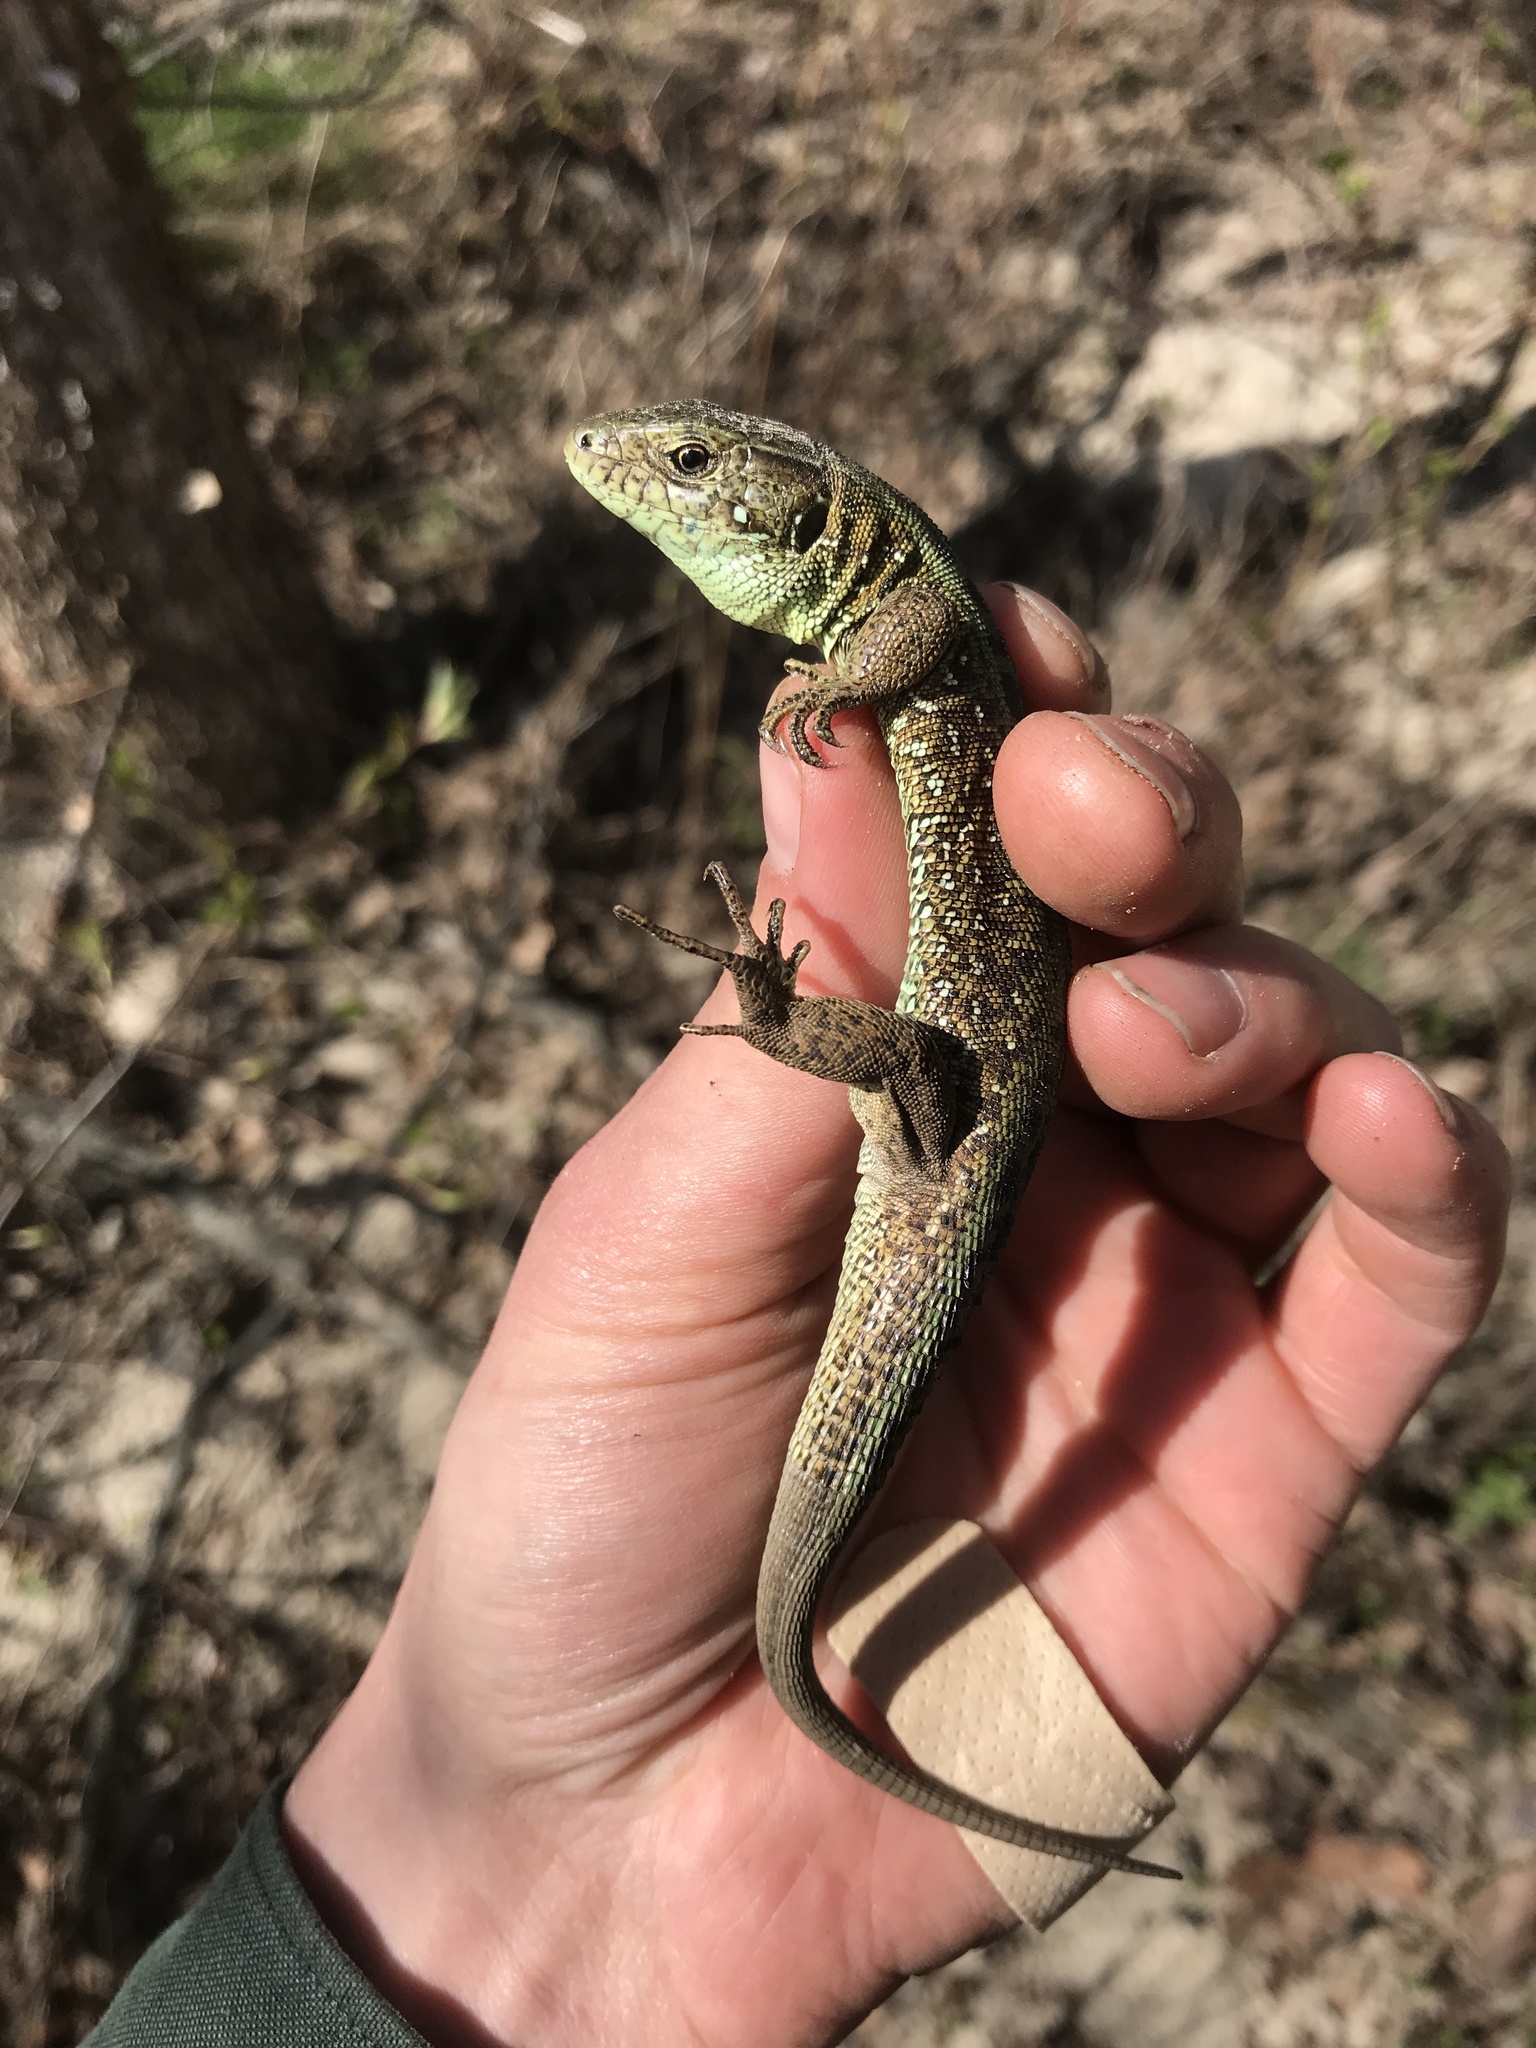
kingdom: Animalia
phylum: Chordata
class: Squamata
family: Lacertidae
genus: Lacerta
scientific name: Lacerta agilis
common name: Sand lizard
